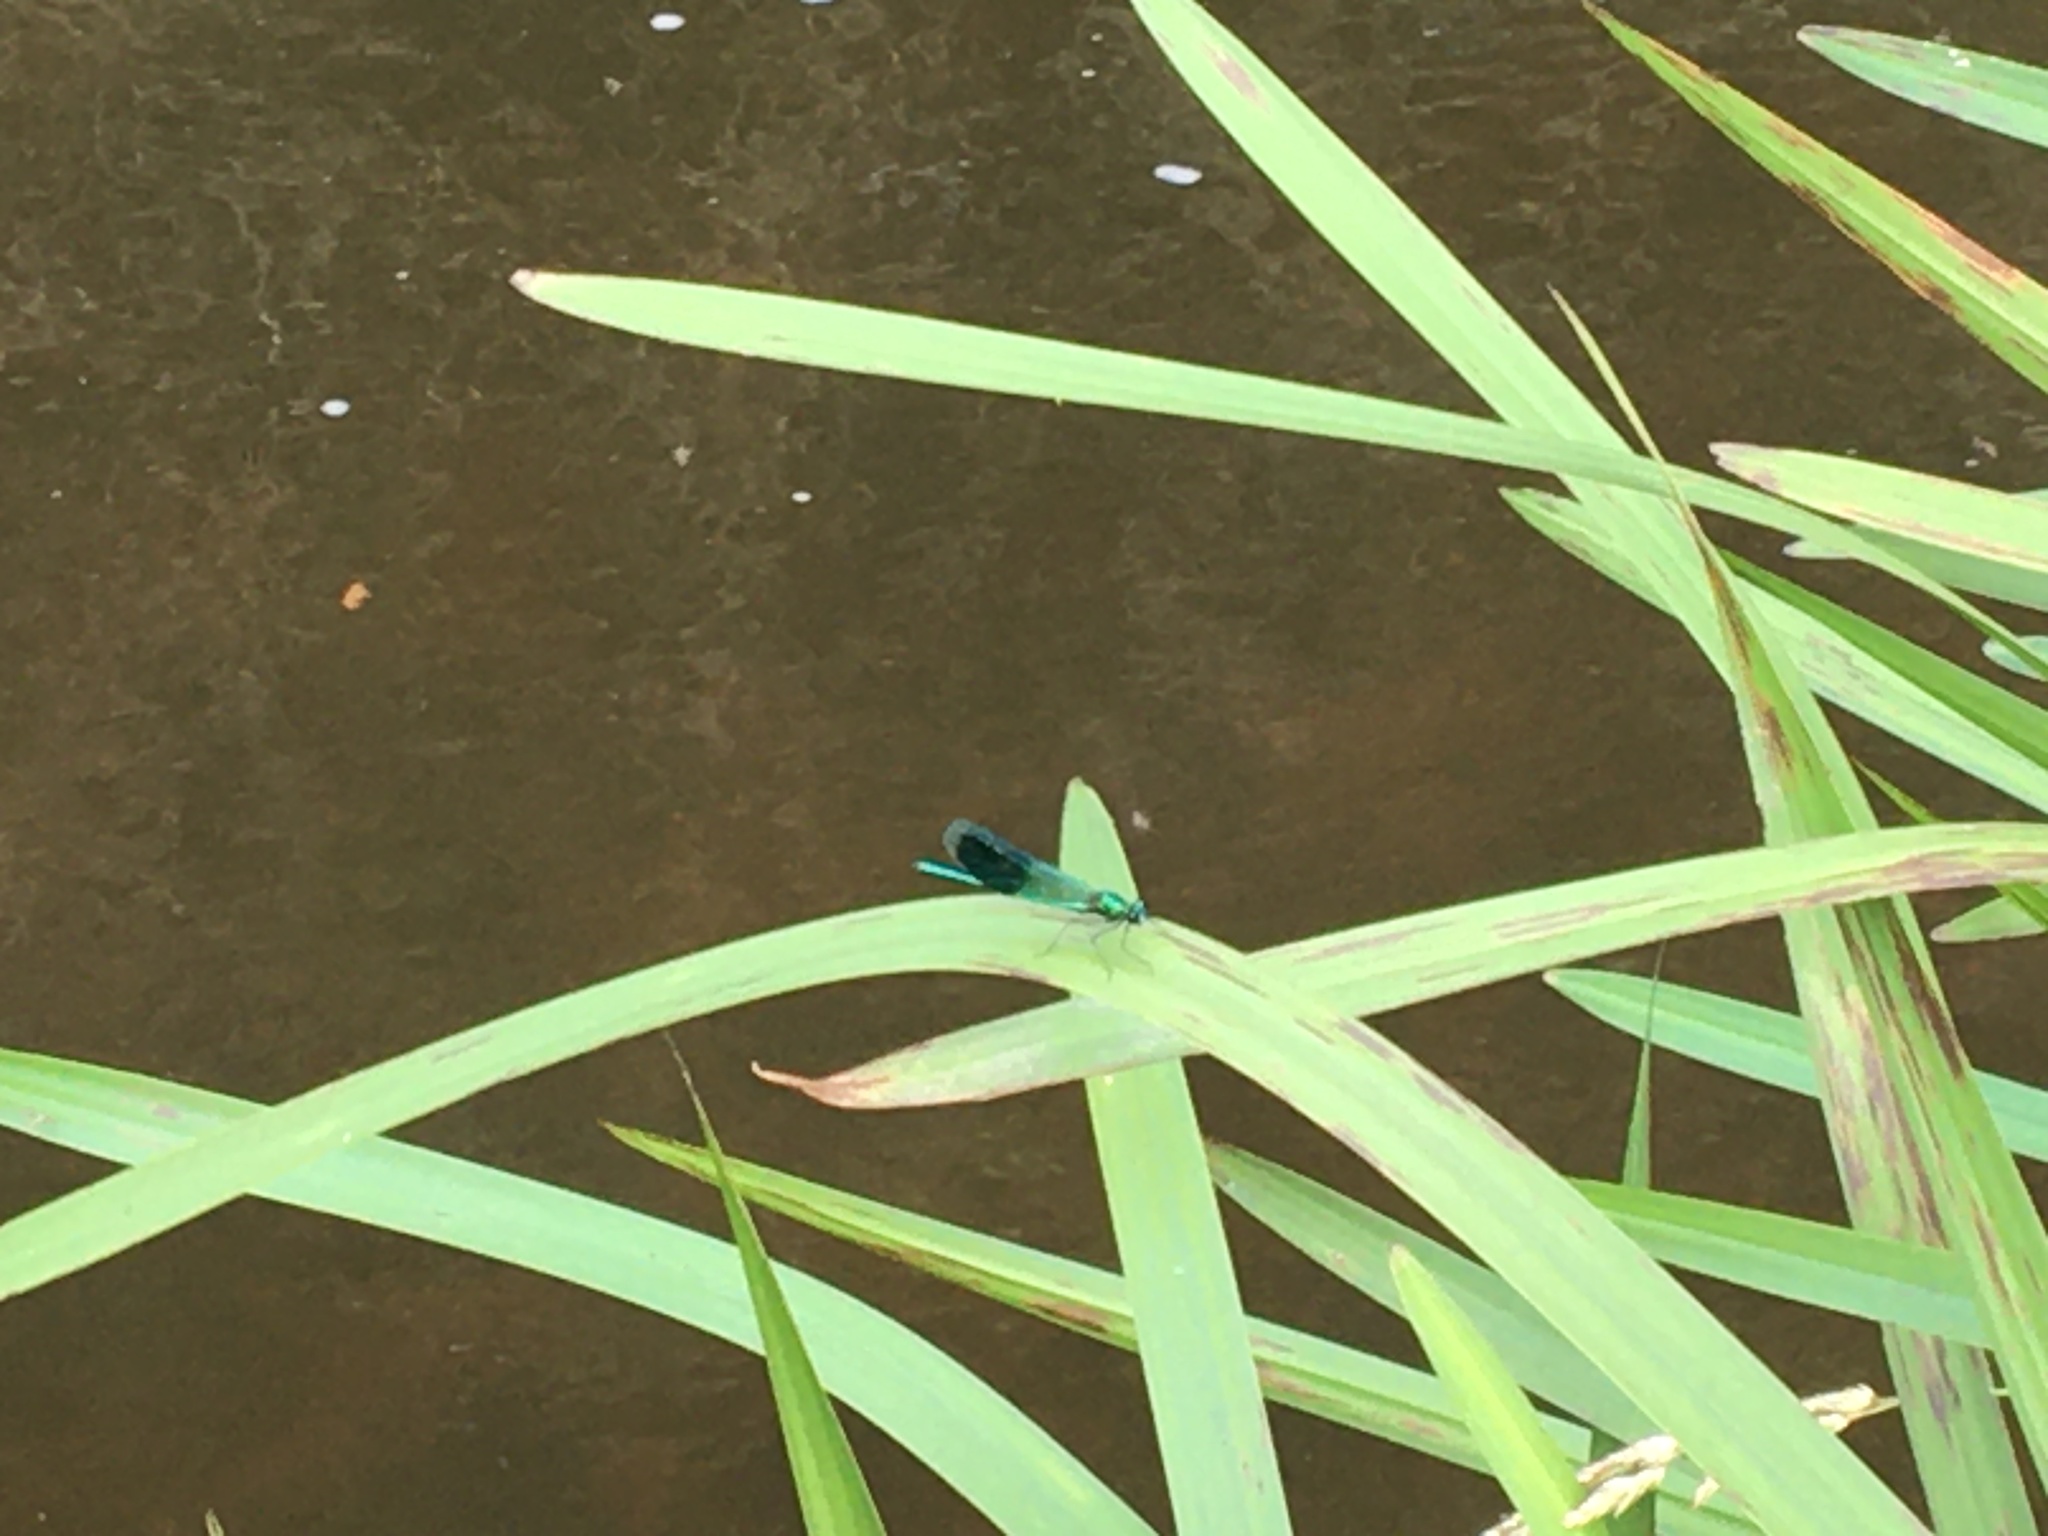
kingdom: Animalia
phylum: Arthropoda
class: Insecta
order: Odonata
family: Calopterygidae
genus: Calopteryx
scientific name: Calopteryx splendens
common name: Banded demoiselle
